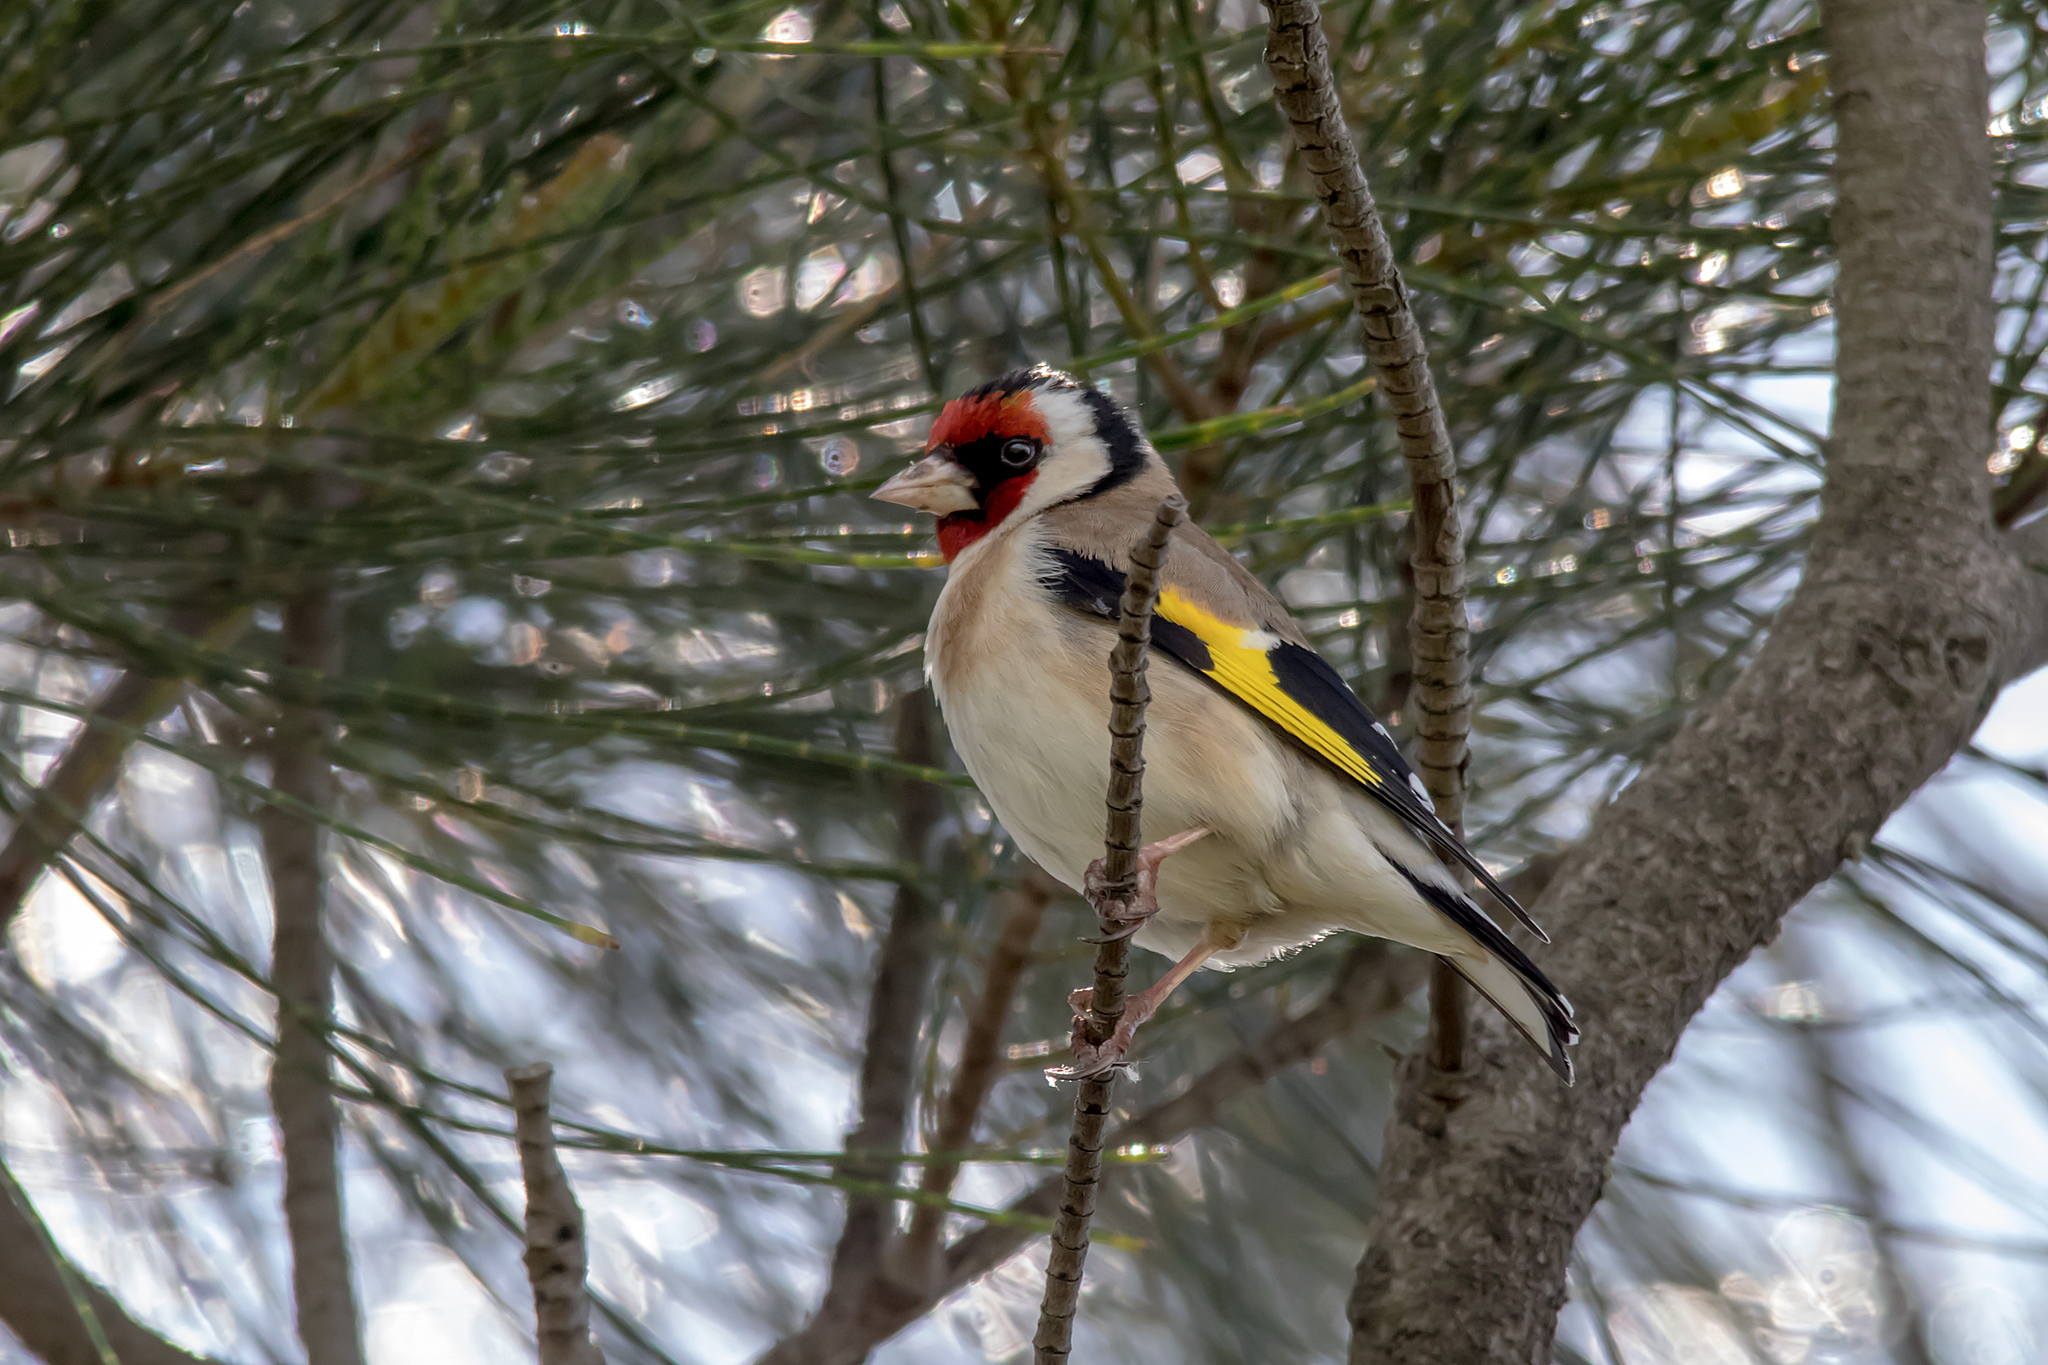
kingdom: Animalia
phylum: Chordata
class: Aves
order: Passeriformes
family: Fringillidae
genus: Carduelis
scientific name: Carduelis carduelis
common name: European goldfinch
